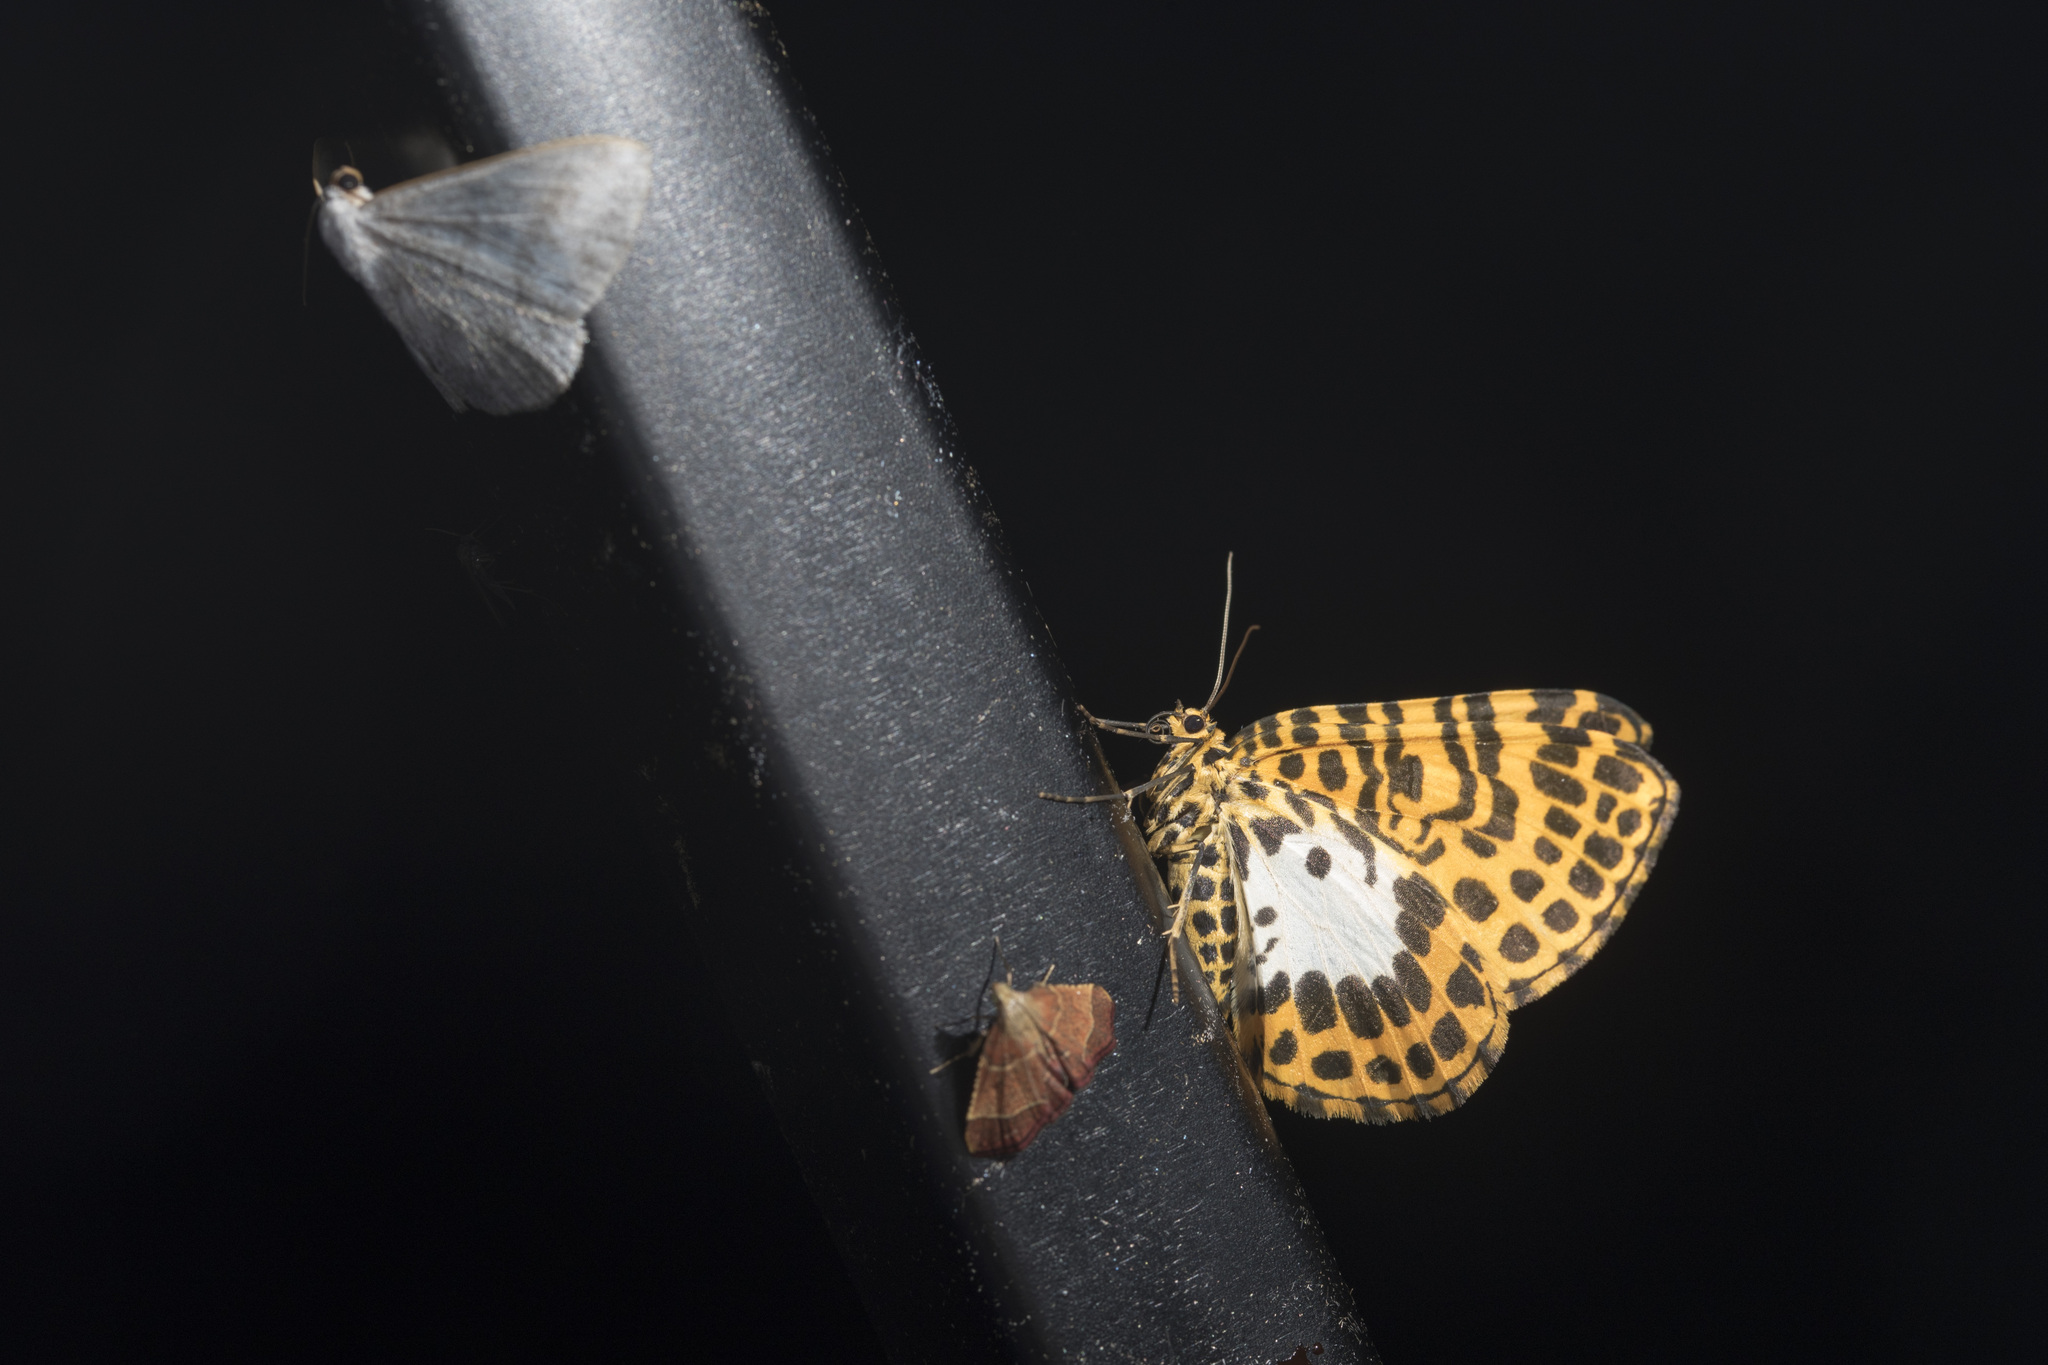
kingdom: Animalia
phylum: Arthropoda
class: Insecta
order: Lepidoptera
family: Geometridae
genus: Gandaritis
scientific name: Gandaritis octoscripta
